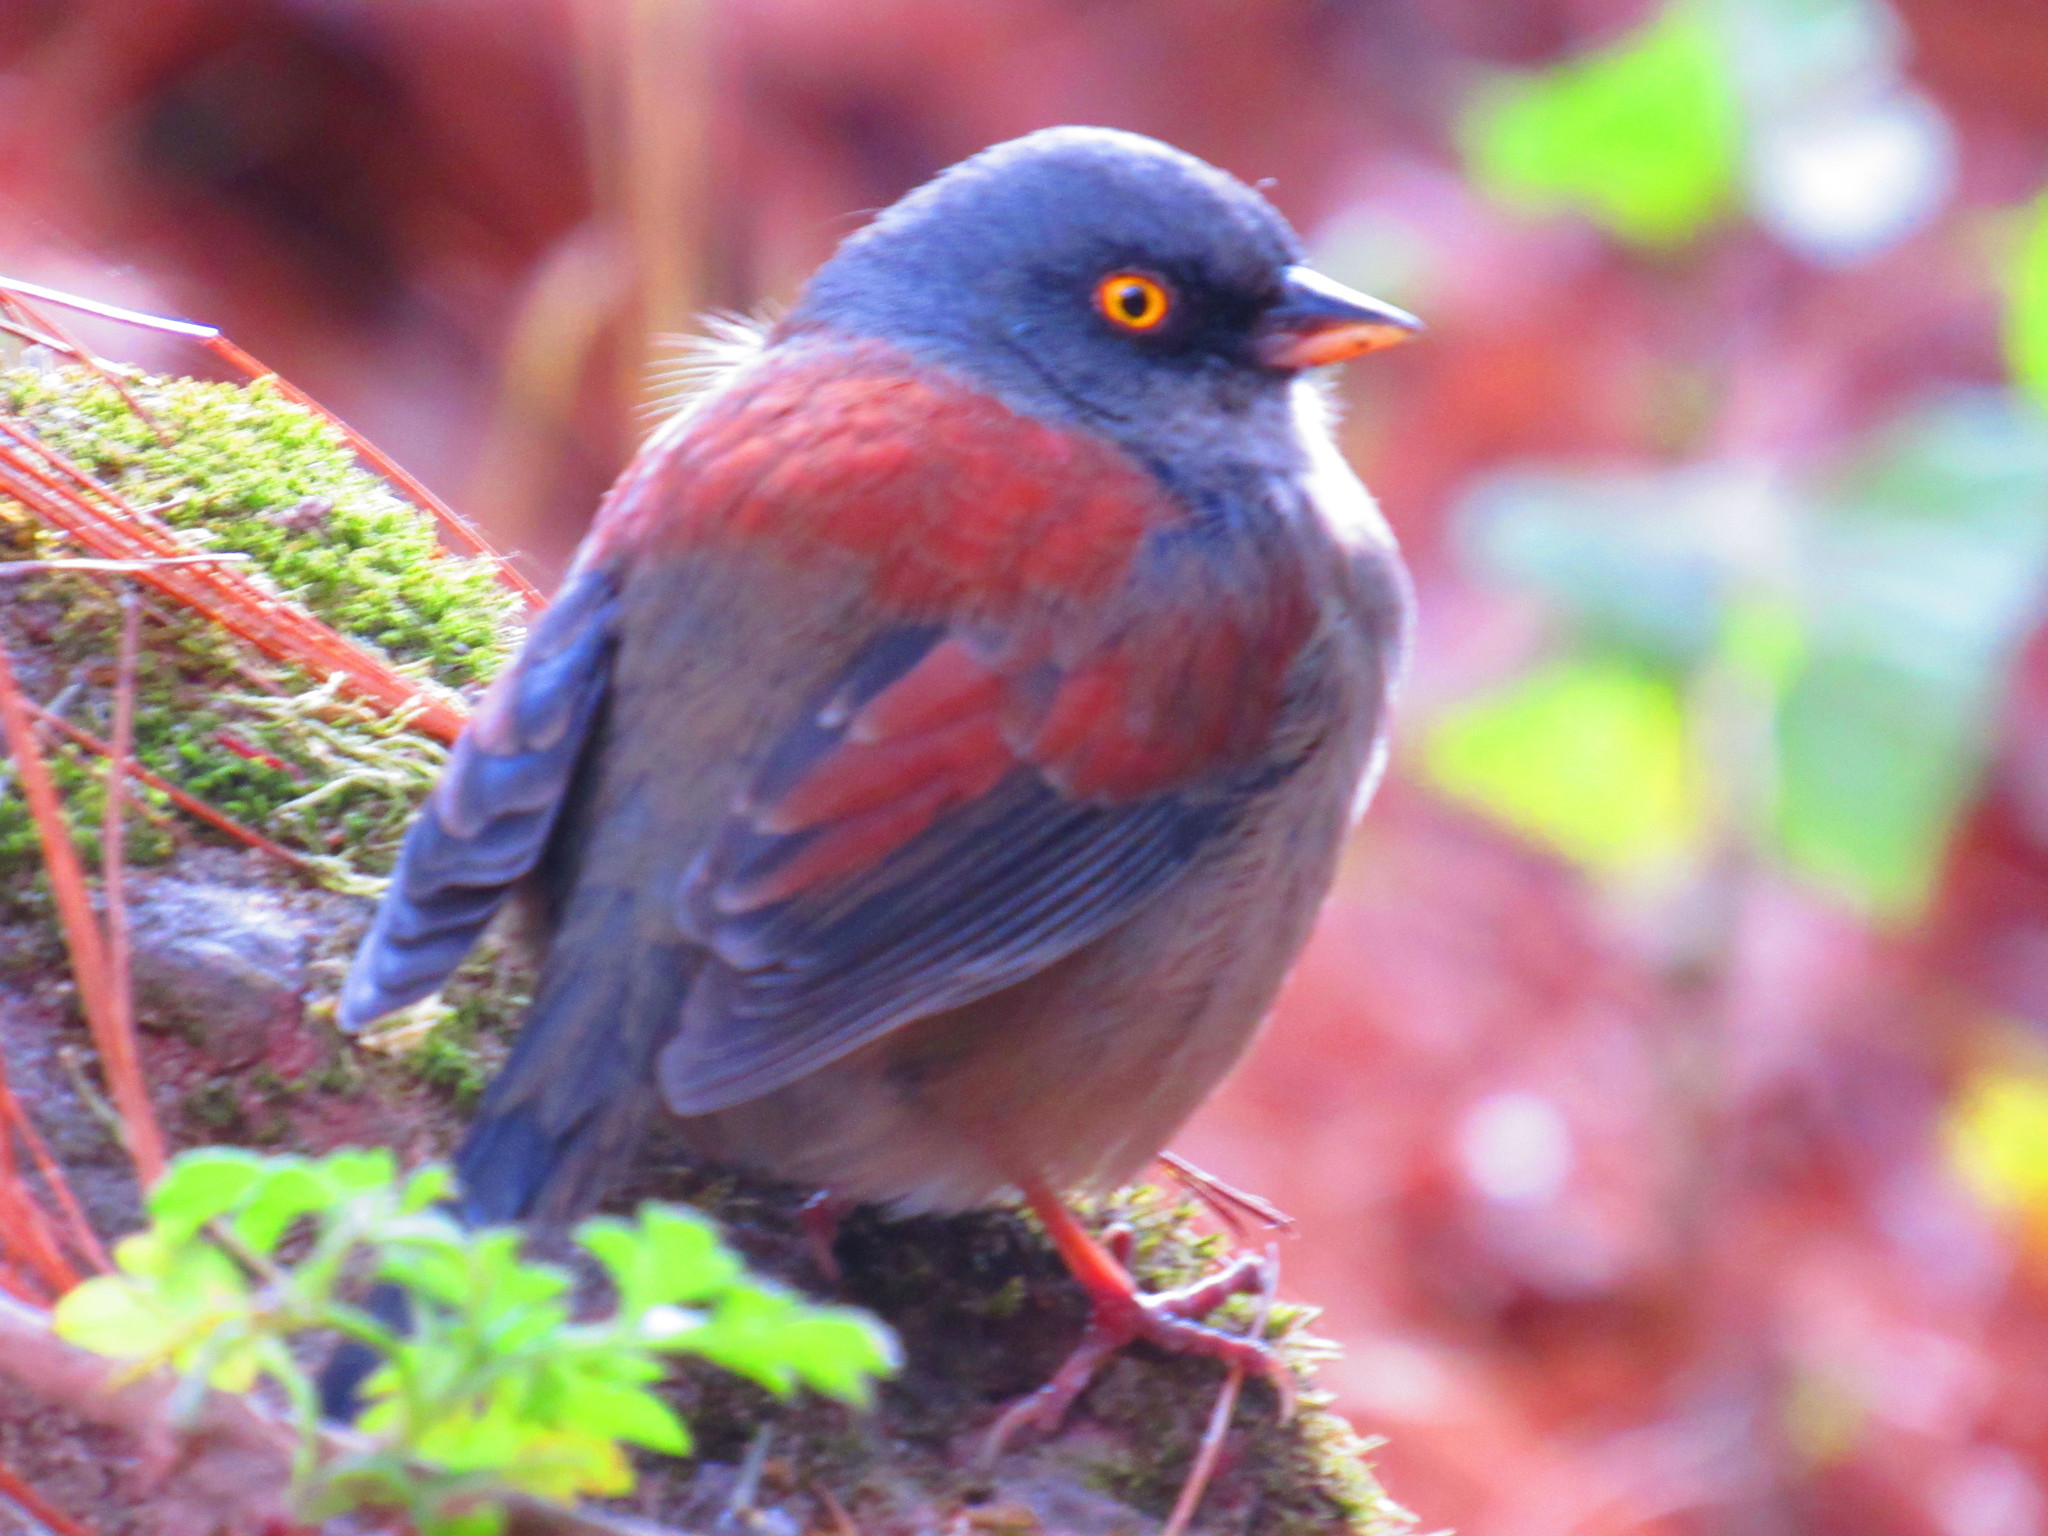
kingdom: Animalia
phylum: Chordata
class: Aves
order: Passeriformes
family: Passerellidae
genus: Junco
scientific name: Junco phaeonotus
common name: Yellow-eyed junco
